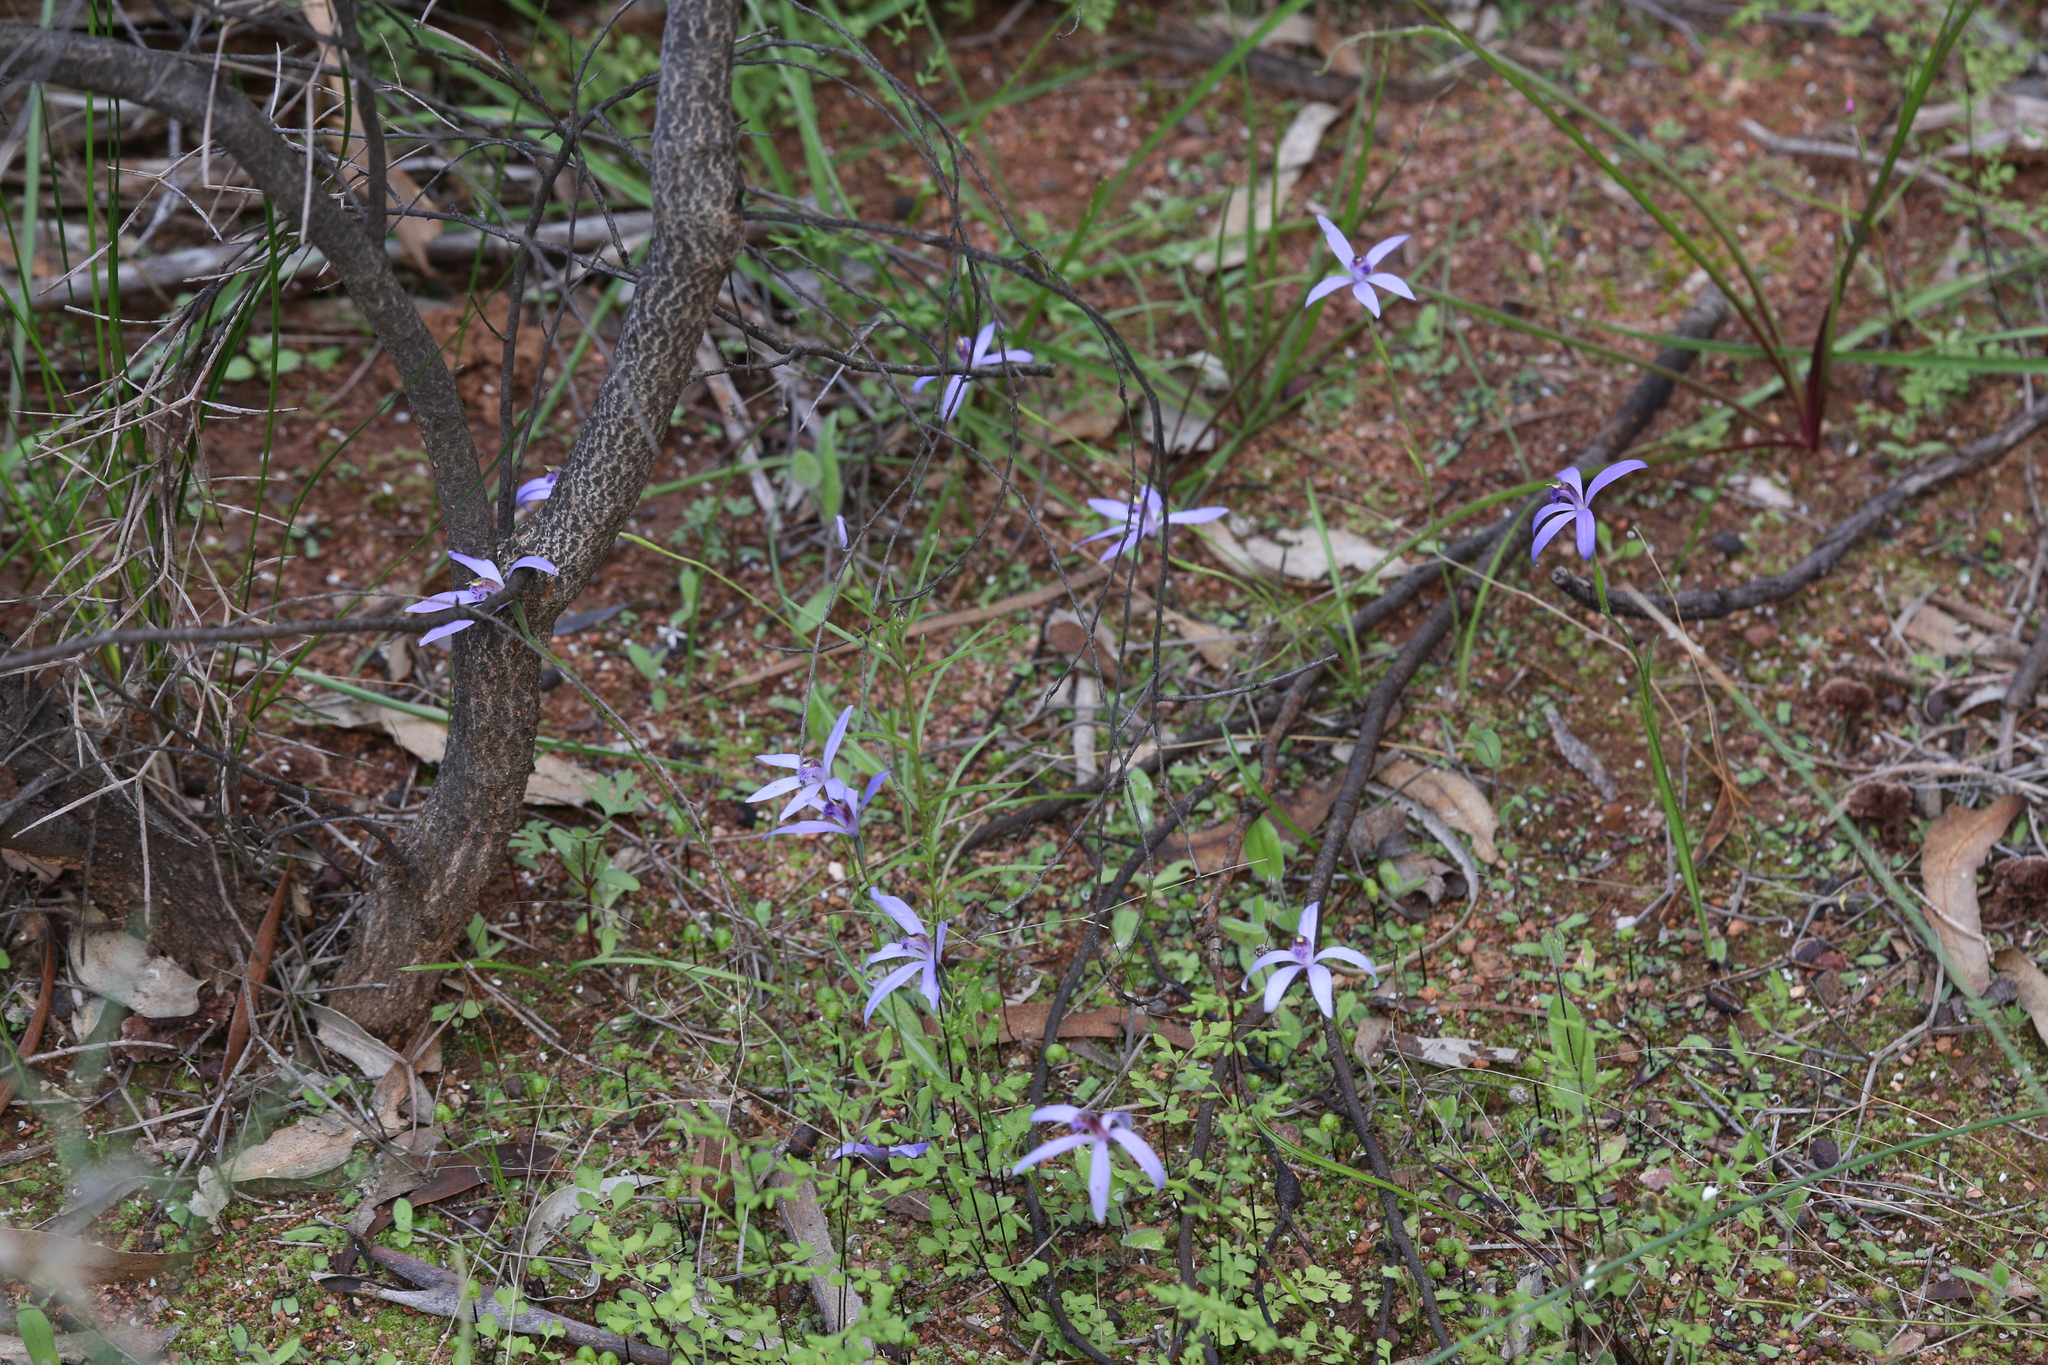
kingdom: Plantae
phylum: Tracheophyta
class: Liliopsida
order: Asparagales
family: Orchidaceae
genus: Pheladenia
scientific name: Pheladenia deformis
